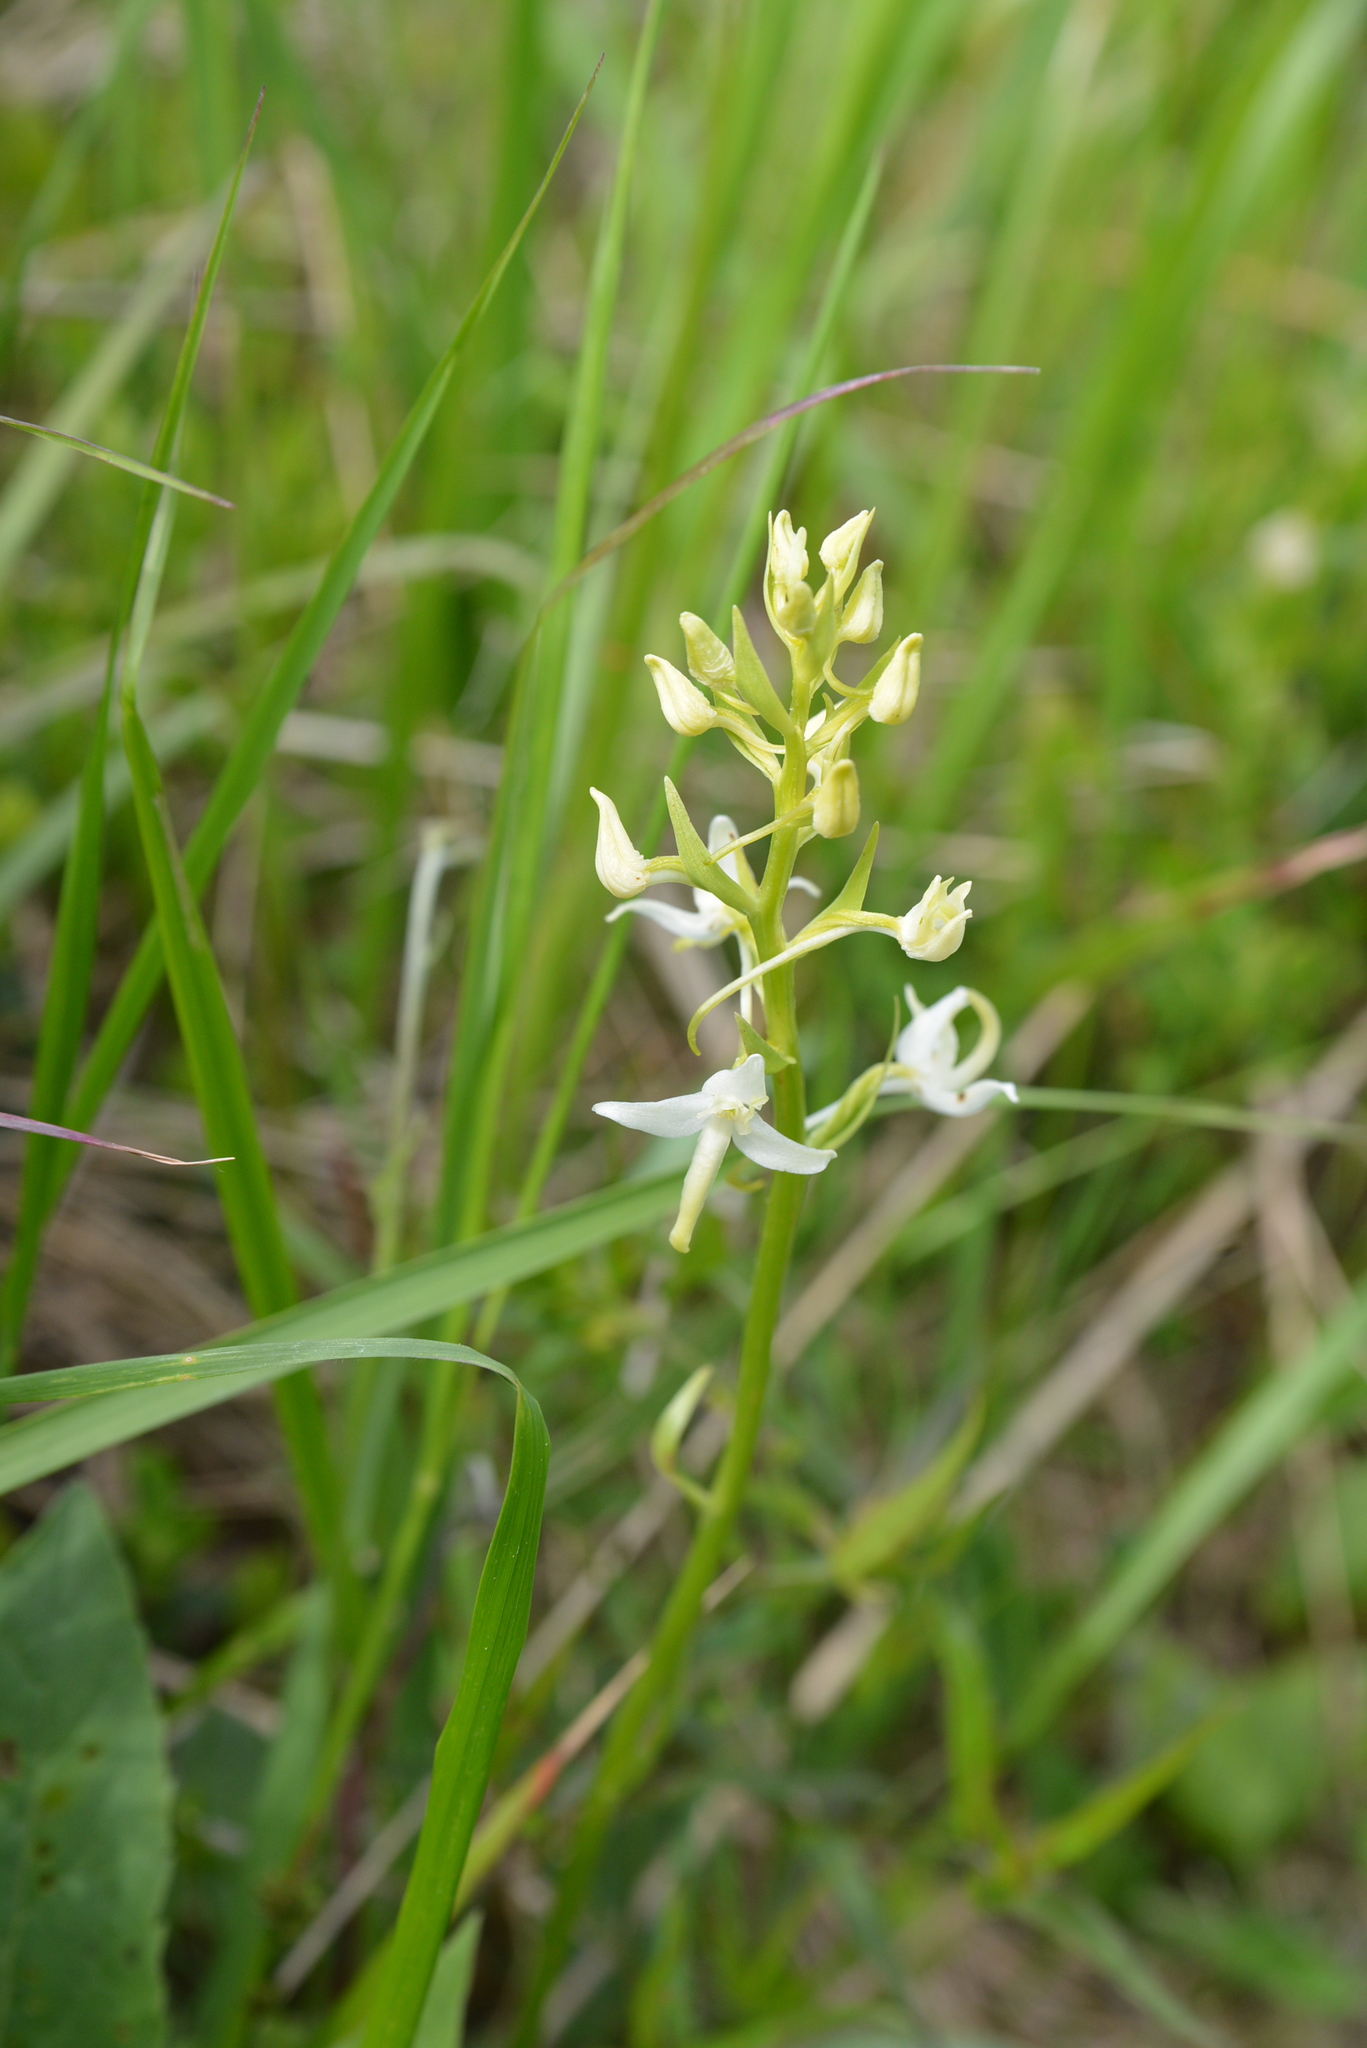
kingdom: Plantae
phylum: Tracheophyta
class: Liliopsida
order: Asparagales
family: Orchidaceae
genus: Platanthera
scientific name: Platanthera bifolia
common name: Lesser butterfly-orchid
